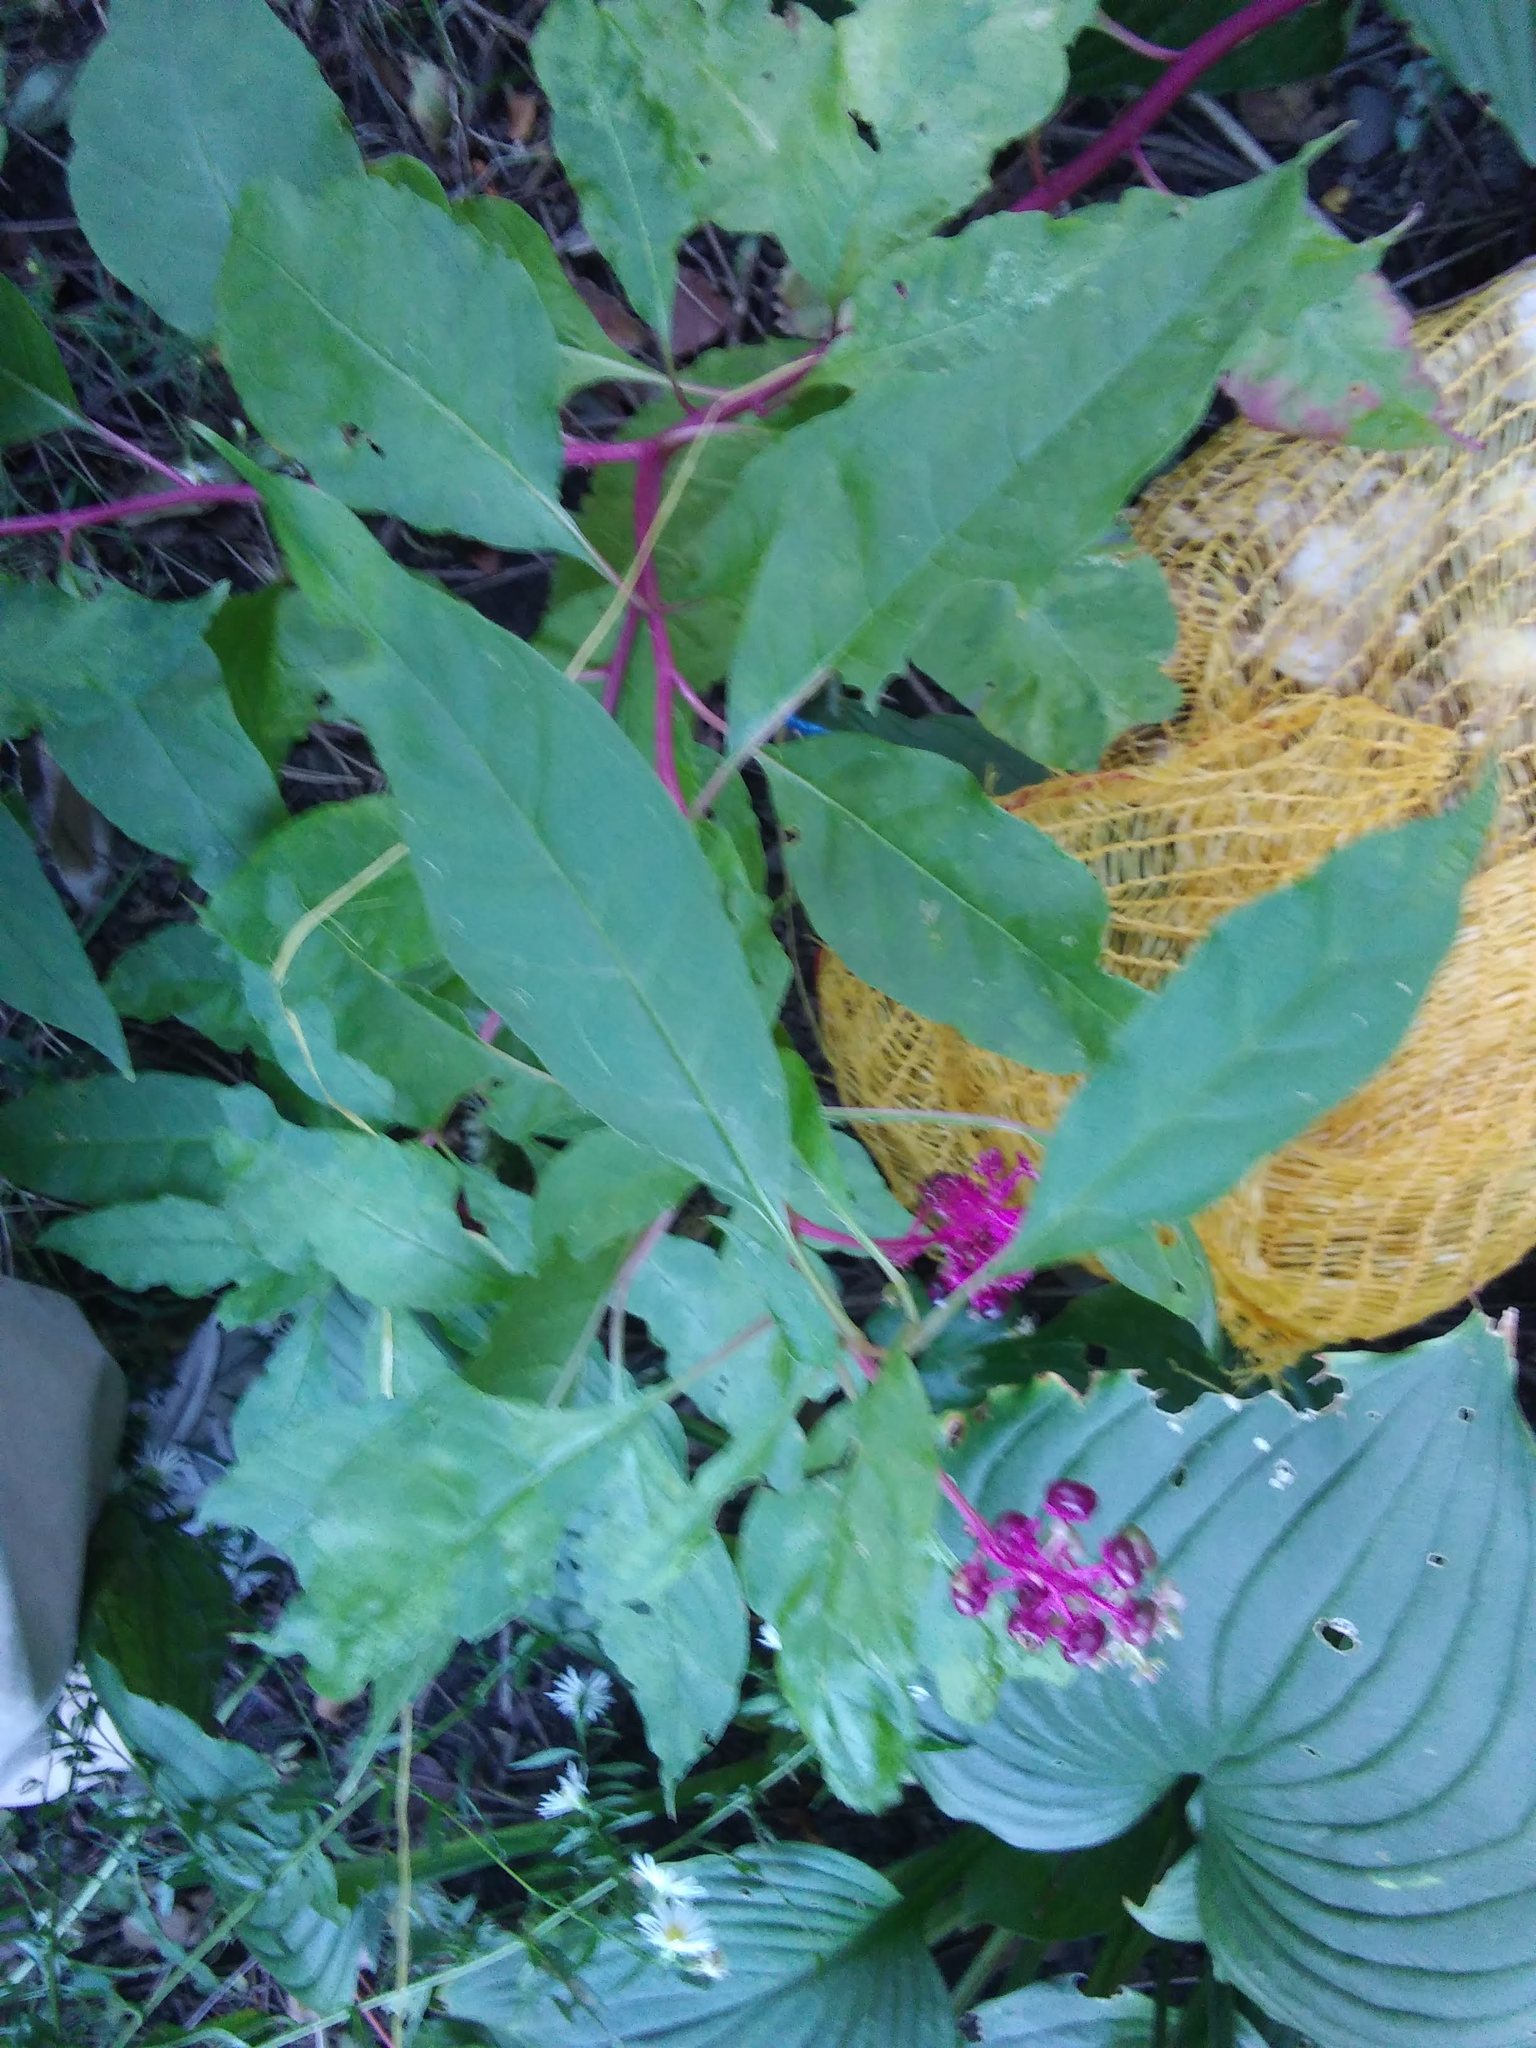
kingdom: Plantae
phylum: Tracheophyta
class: Magnoliopsida
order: Caryophyllales
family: Phytolaccaceae
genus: Phytolacca
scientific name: Phytolacca americana
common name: American pokeweed
